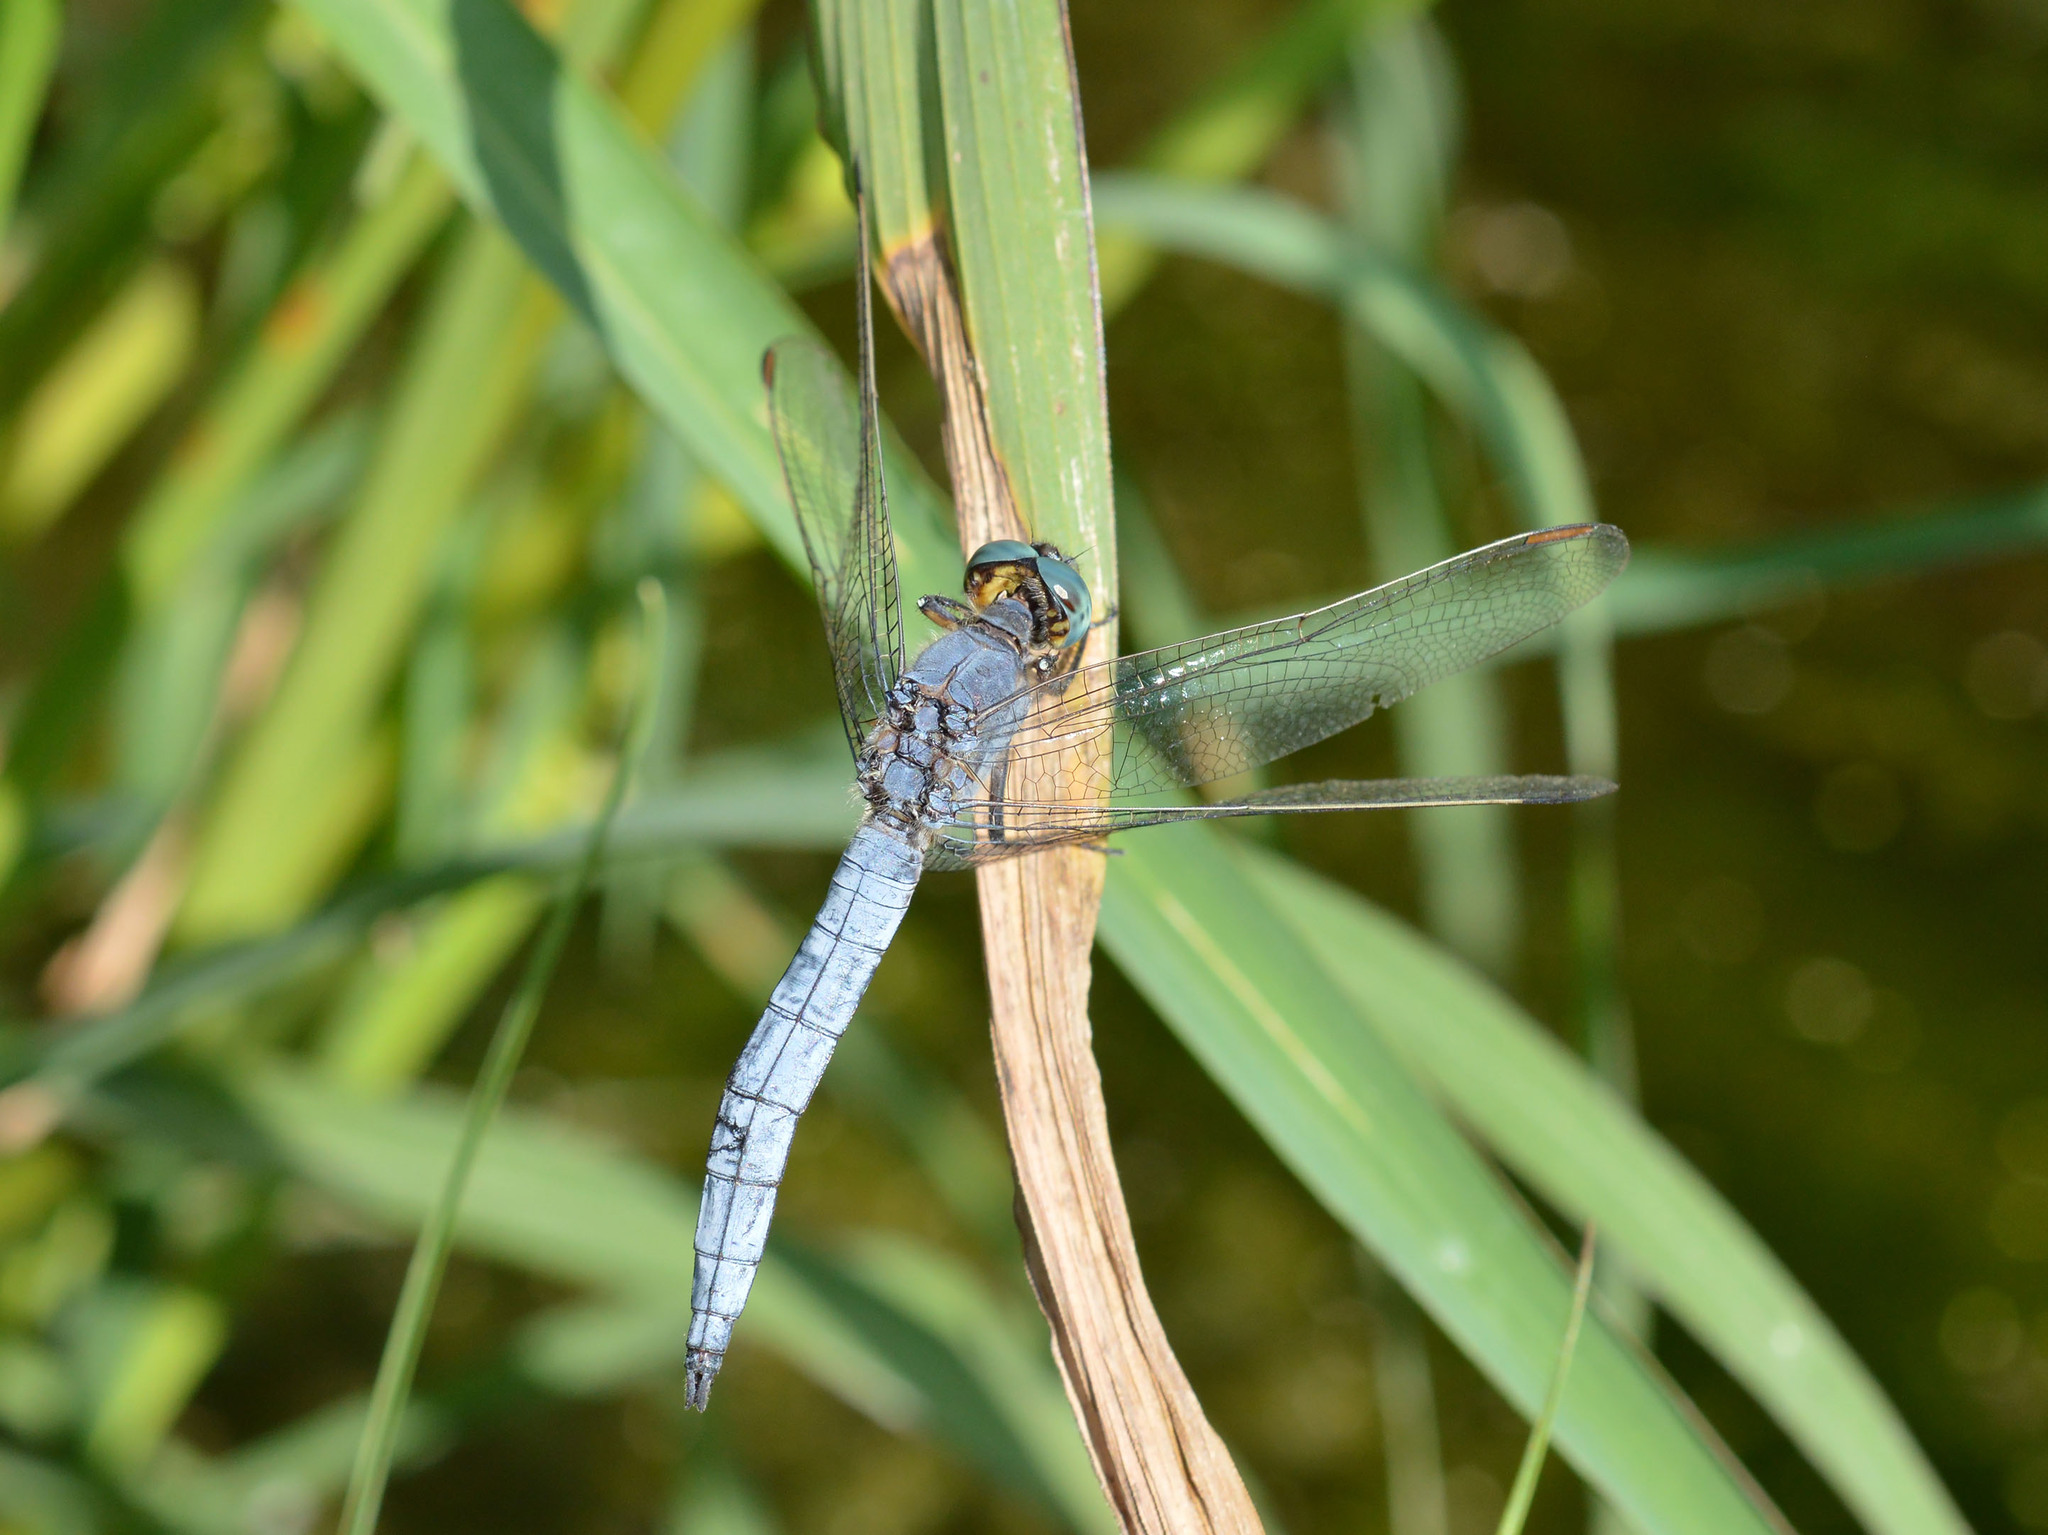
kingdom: Animalia
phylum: Arthropoda
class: Insecta
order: Odonata
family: Libellulidae
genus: Orthetrum
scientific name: Orthetrum coerulescens
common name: Keeled skimmer
